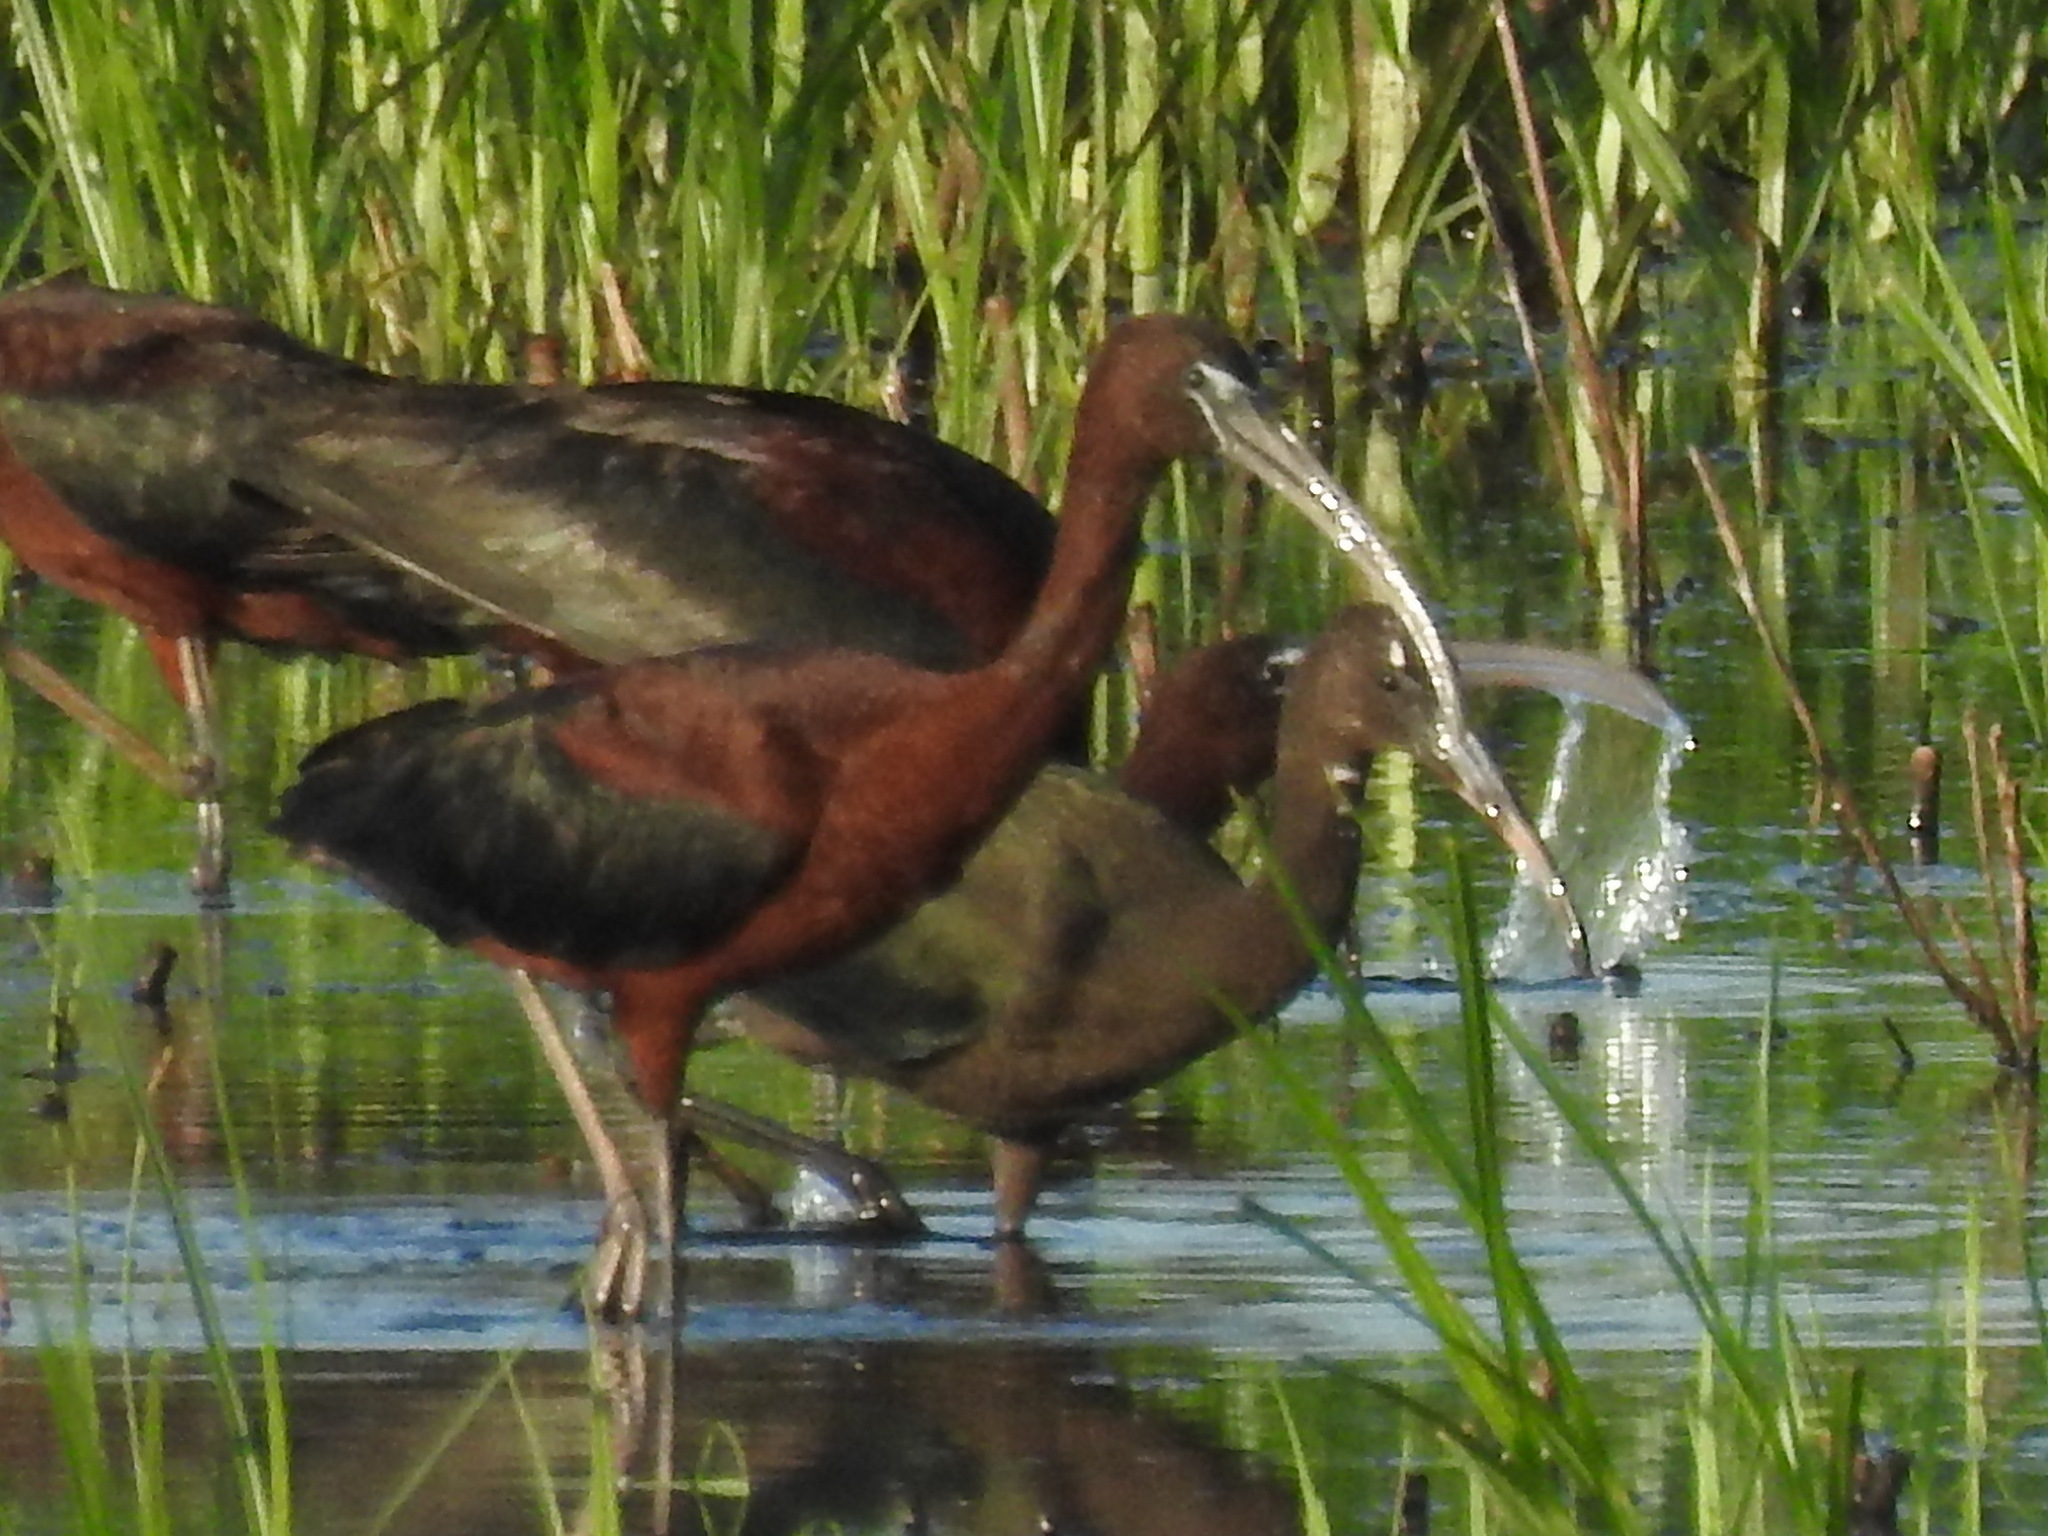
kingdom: Animalia
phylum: Chordata
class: Aves
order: Pelecaniformes
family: Threskiornithidae
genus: Plegadis
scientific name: Plegadis falcinellus
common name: Glossy ibis
